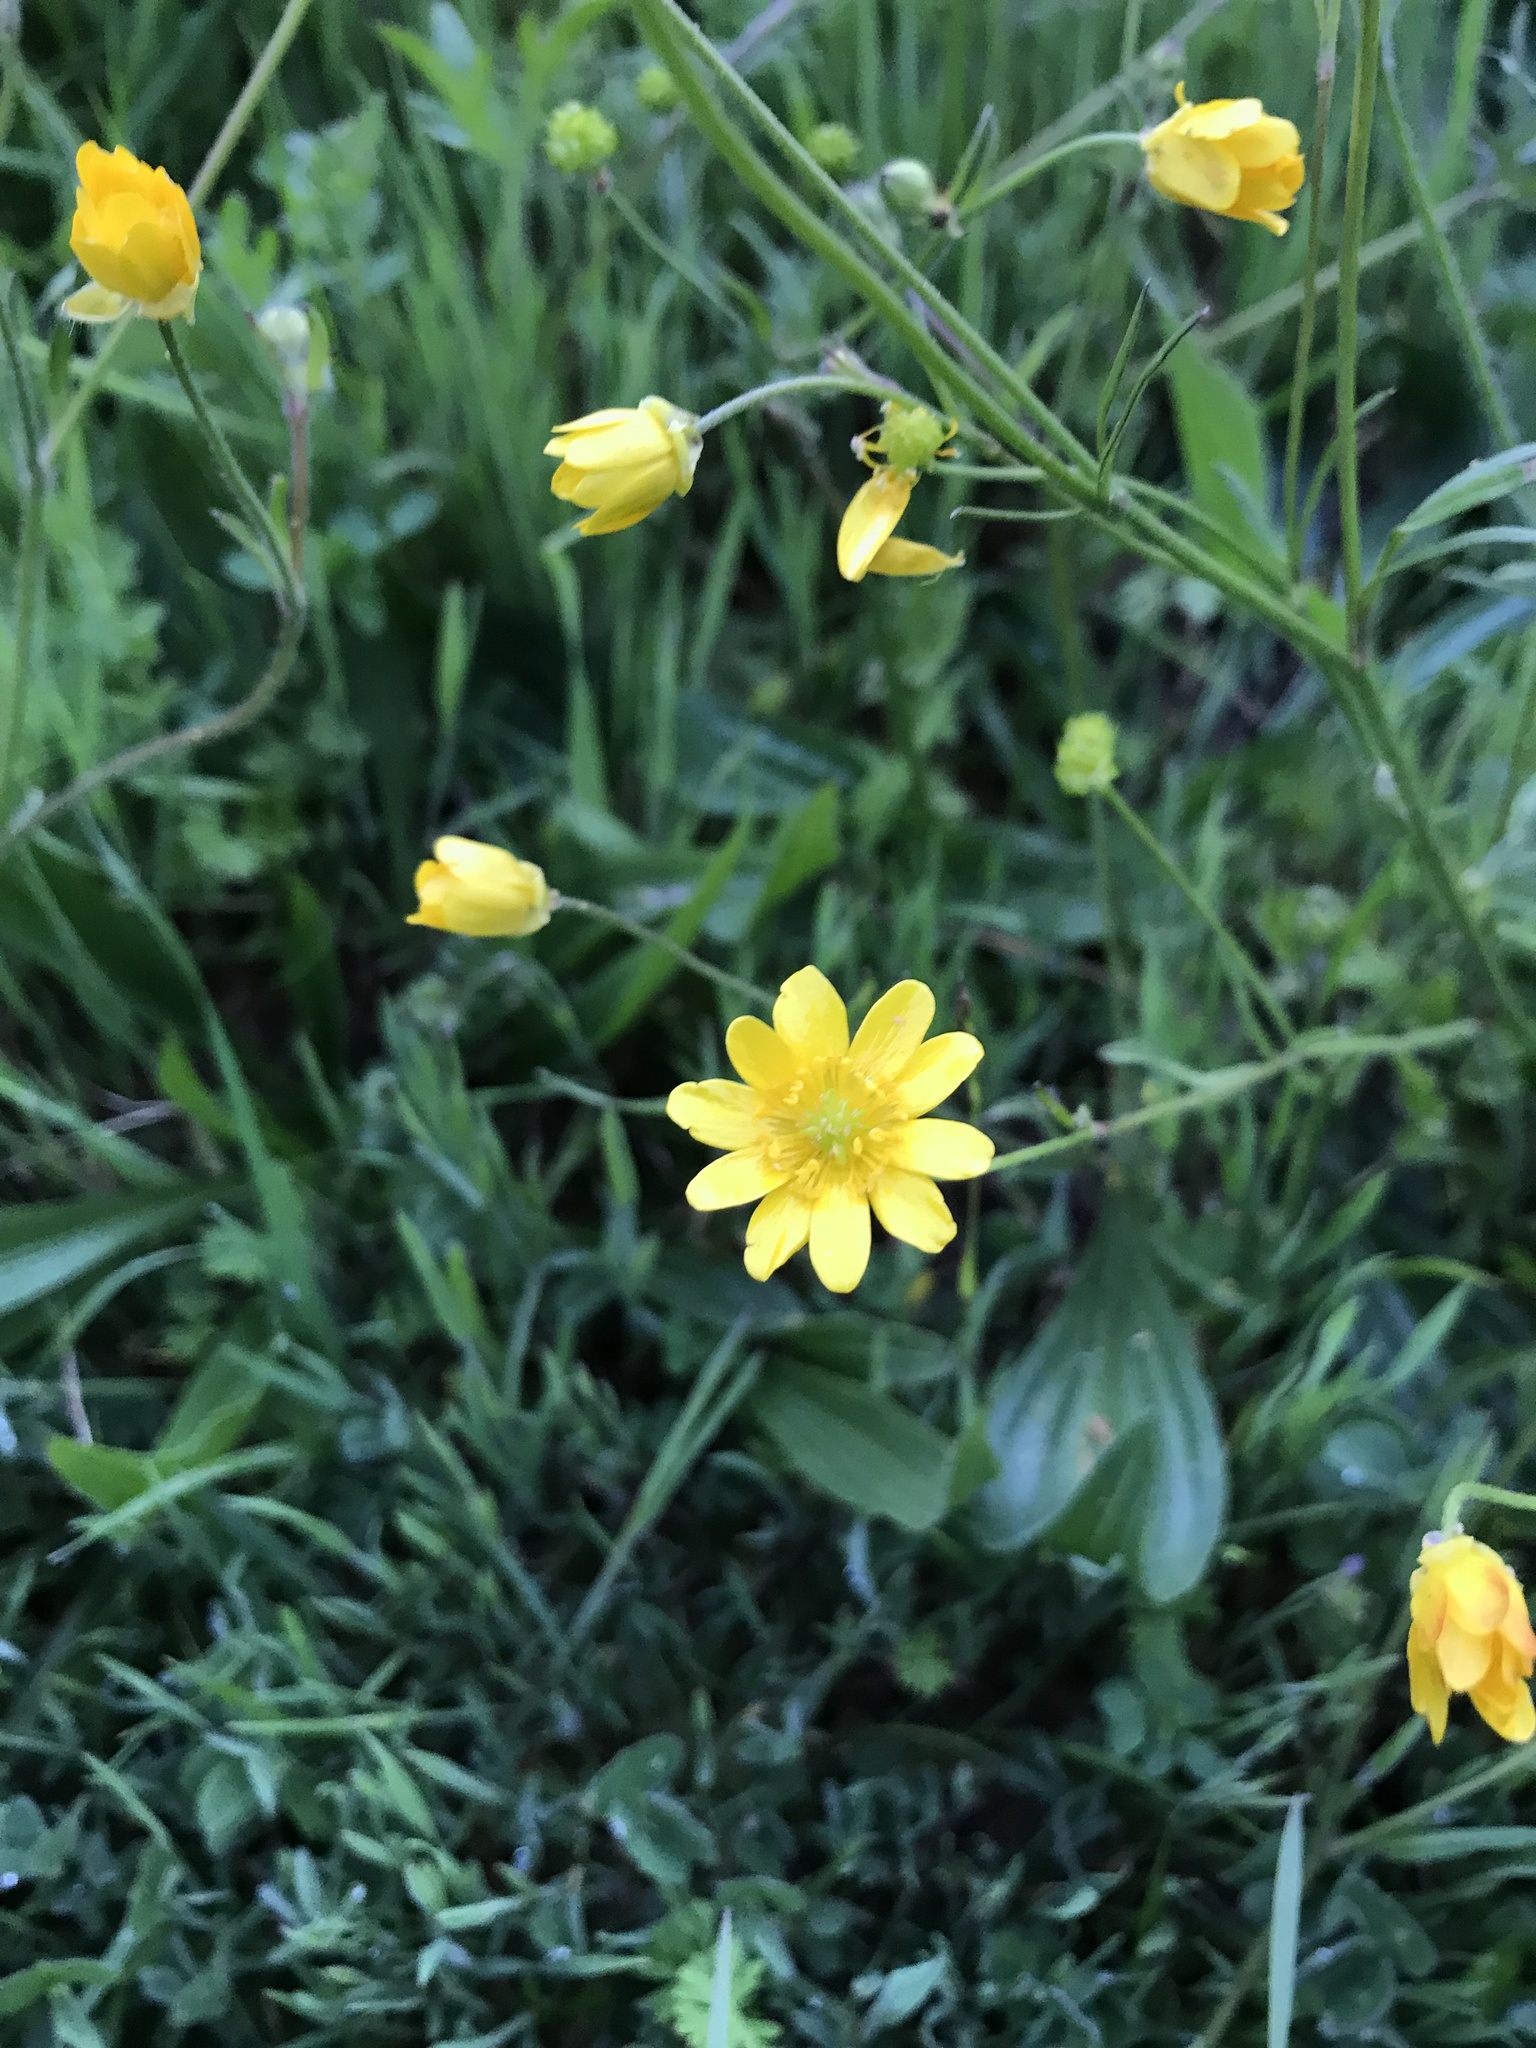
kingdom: Plantae
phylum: Tracheophyta
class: Magnoliopsida
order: Ranunculales
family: Ranunculaceae
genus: Ranunculus
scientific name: Ranunculus californicus
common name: California buttercup
